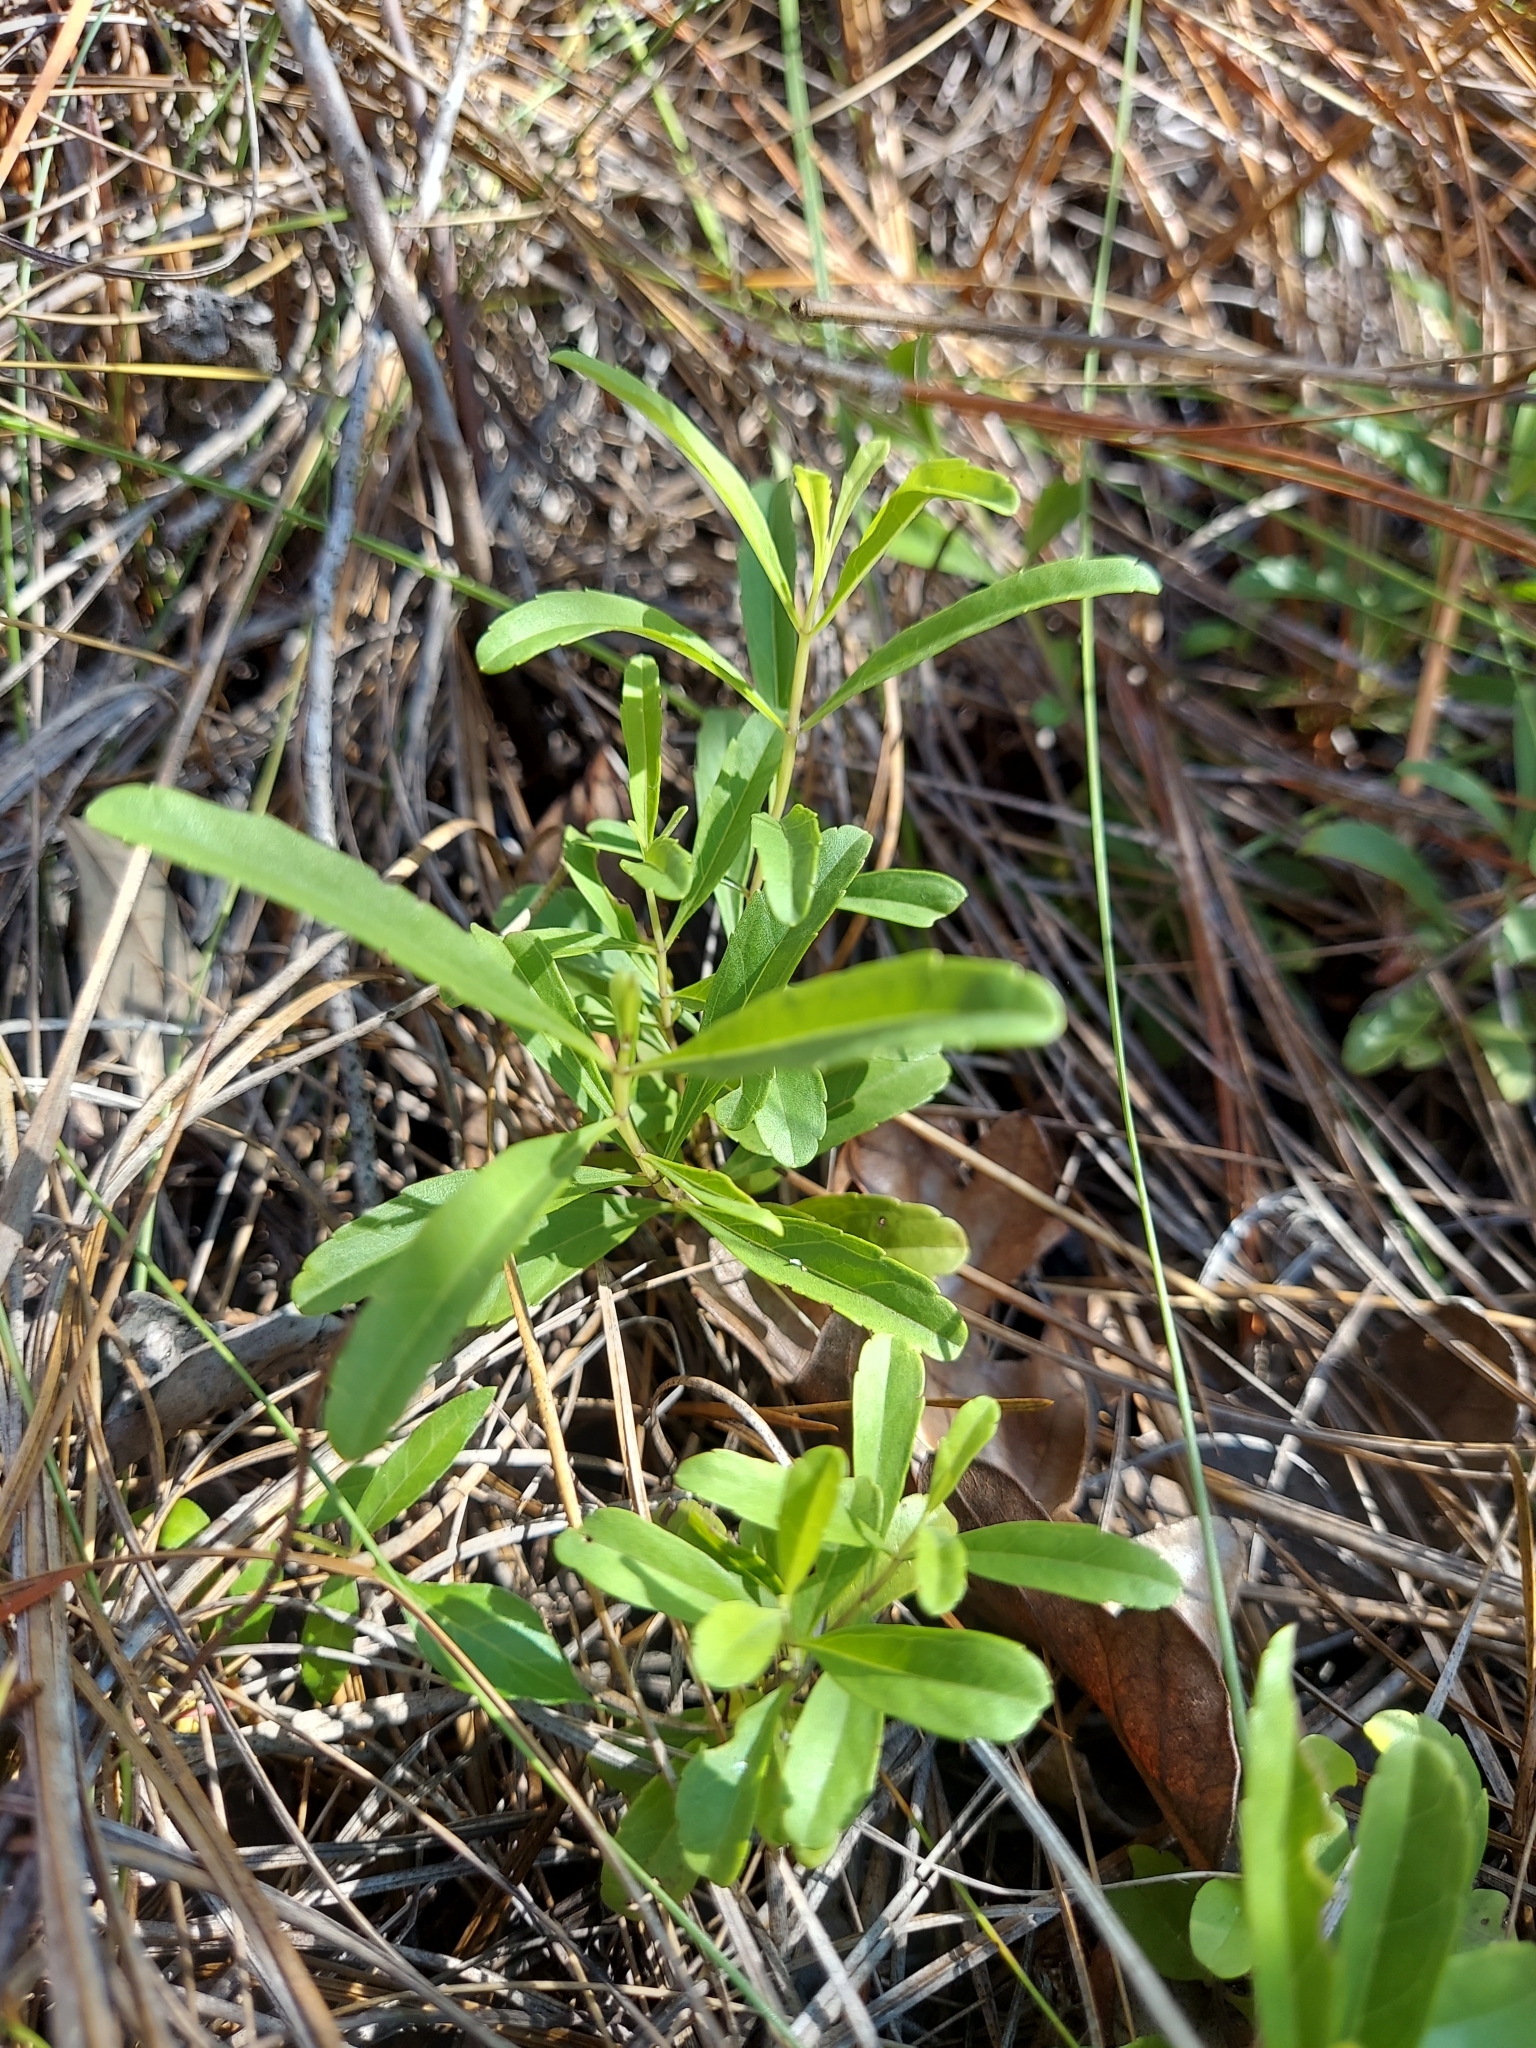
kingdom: Plantae
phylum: Tracheophyta
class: Magnoliopsida
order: Lamiales
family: Lamiaceae
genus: Salvia
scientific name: Salvia azurea
